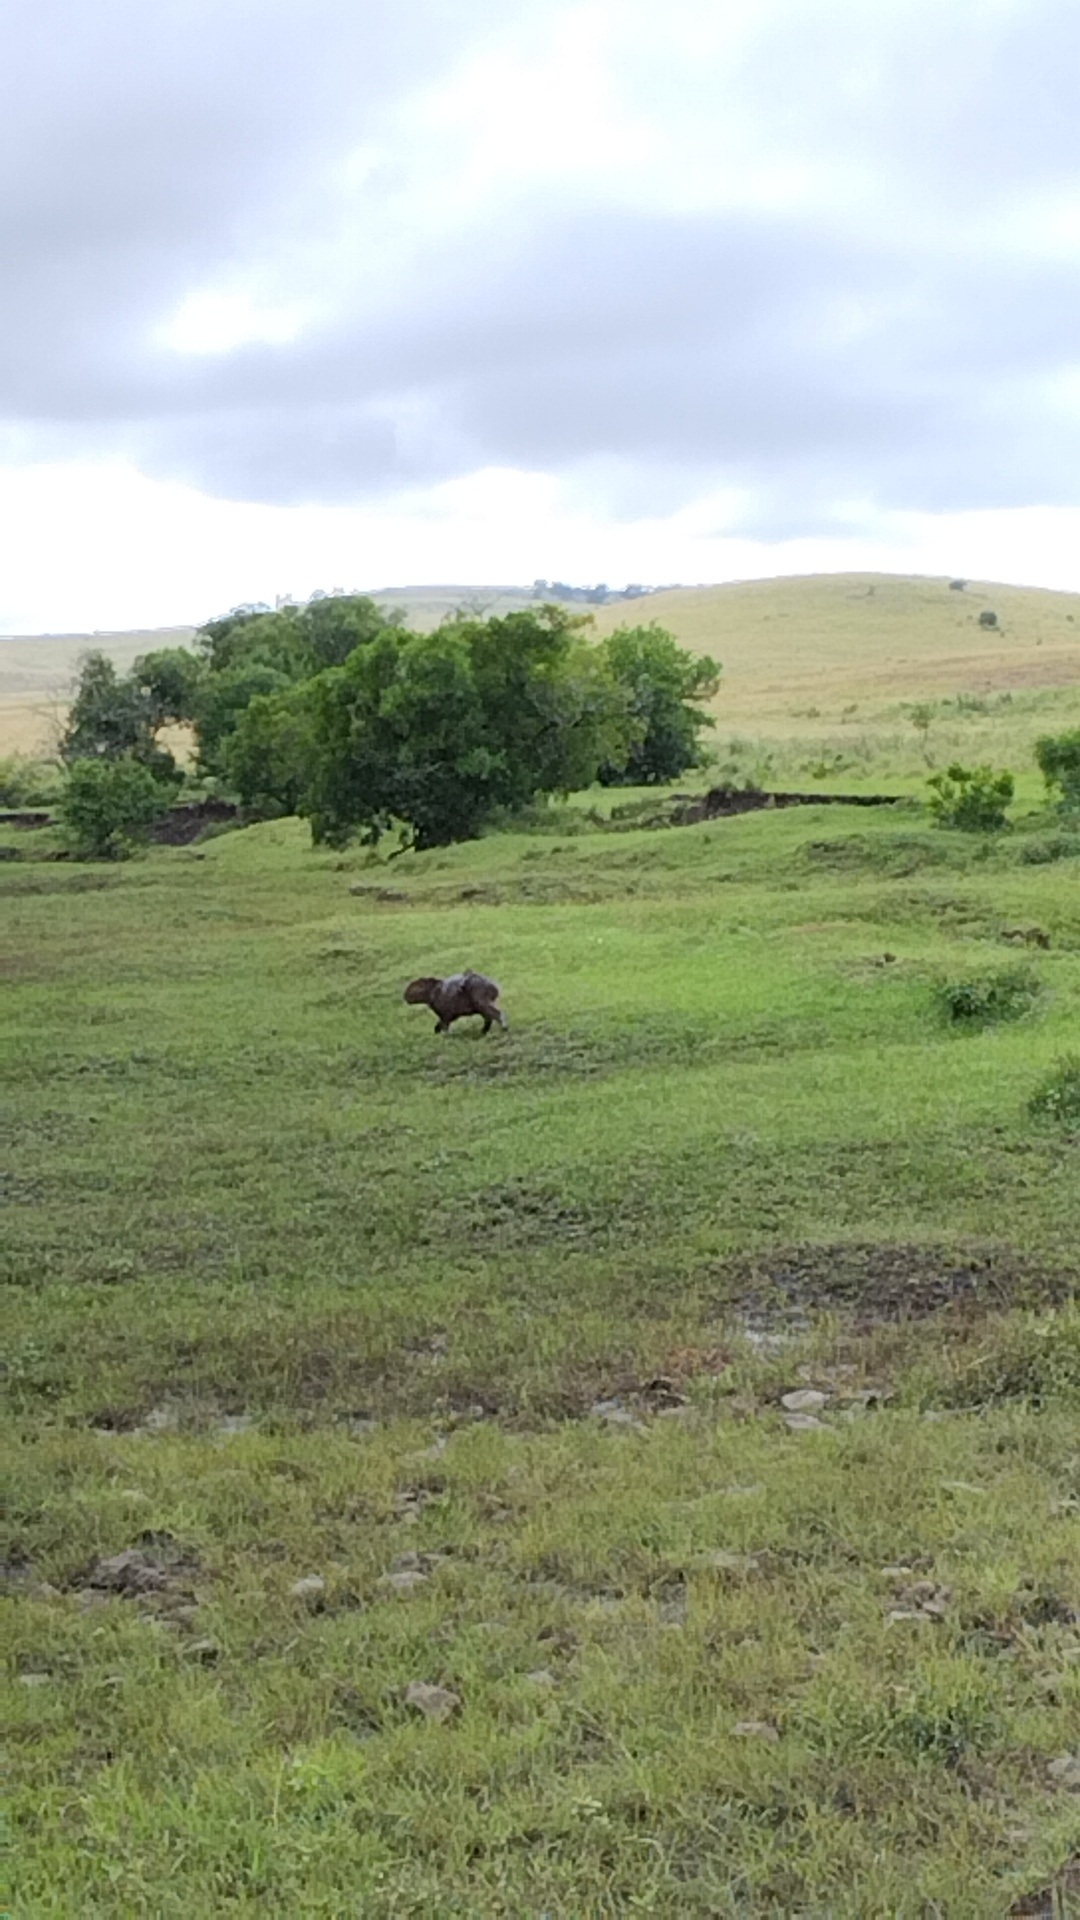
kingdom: Animalia
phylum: Chordata
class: Mammalia
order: Rodentia
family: Caviidae
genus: Hydrochoerus
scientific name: Hydrochoerus hydrochaeris
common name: Capybara
